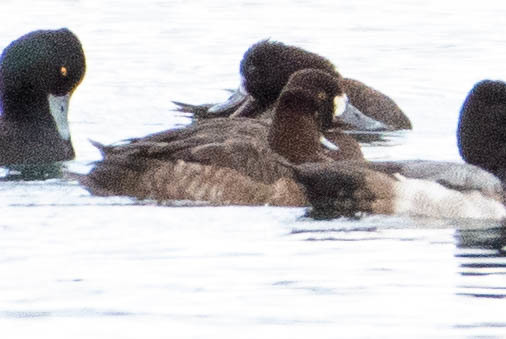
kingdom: Animalia
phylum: Chordata
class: Aves
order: Anseriformes
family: Anatidae
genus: Aythya
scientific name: Aythya affinis
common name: Lesser scaup
